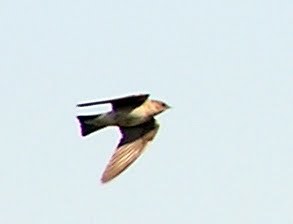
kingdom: Animalia
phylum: Chordata
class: Aves
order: Passeriformes
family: Hirundinidae
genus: Stelgidopteryx
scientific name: Stelgidopteryx serripennis
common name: Northern rough-winged swallow
